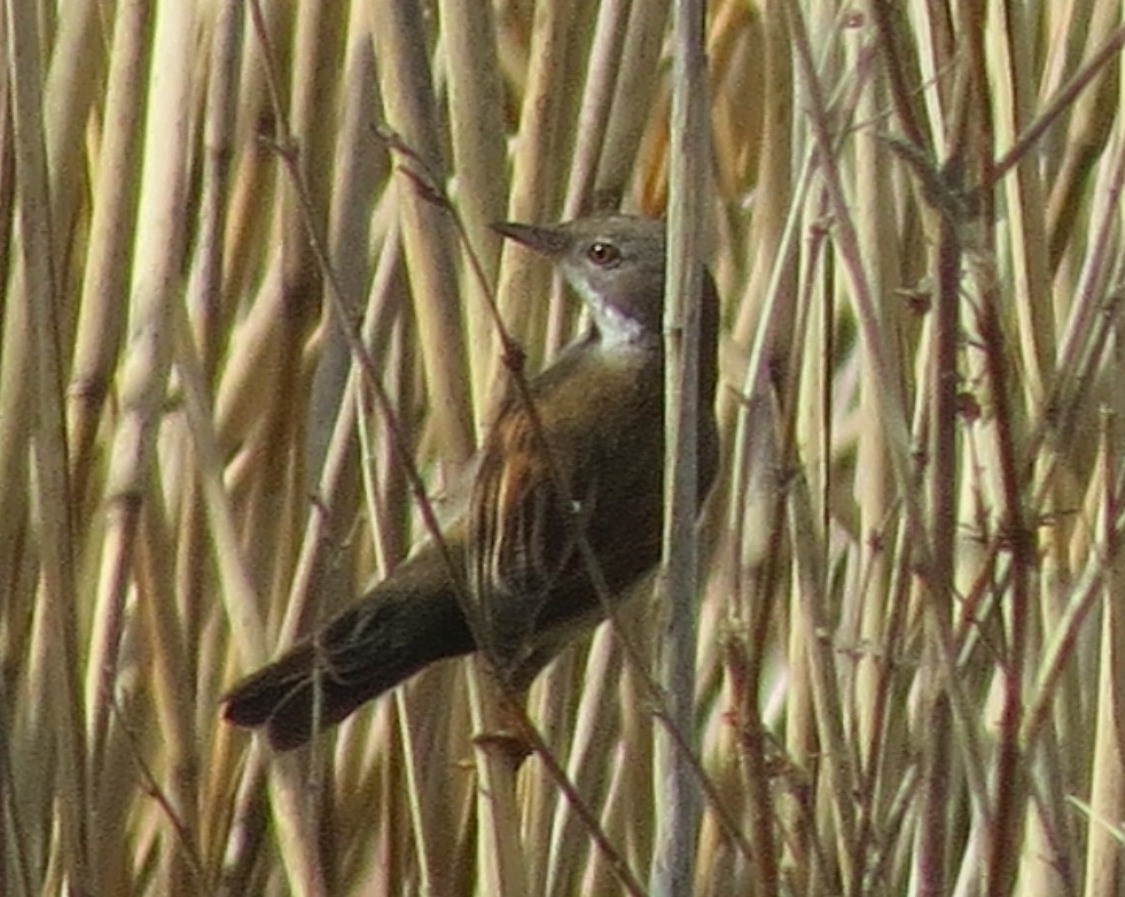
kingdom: Animalia
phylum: Chordata
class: Aves
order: Passeriformes
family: Sylviidae
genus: Sylvia
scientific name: Sylvia communis
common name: Common whitethroat
